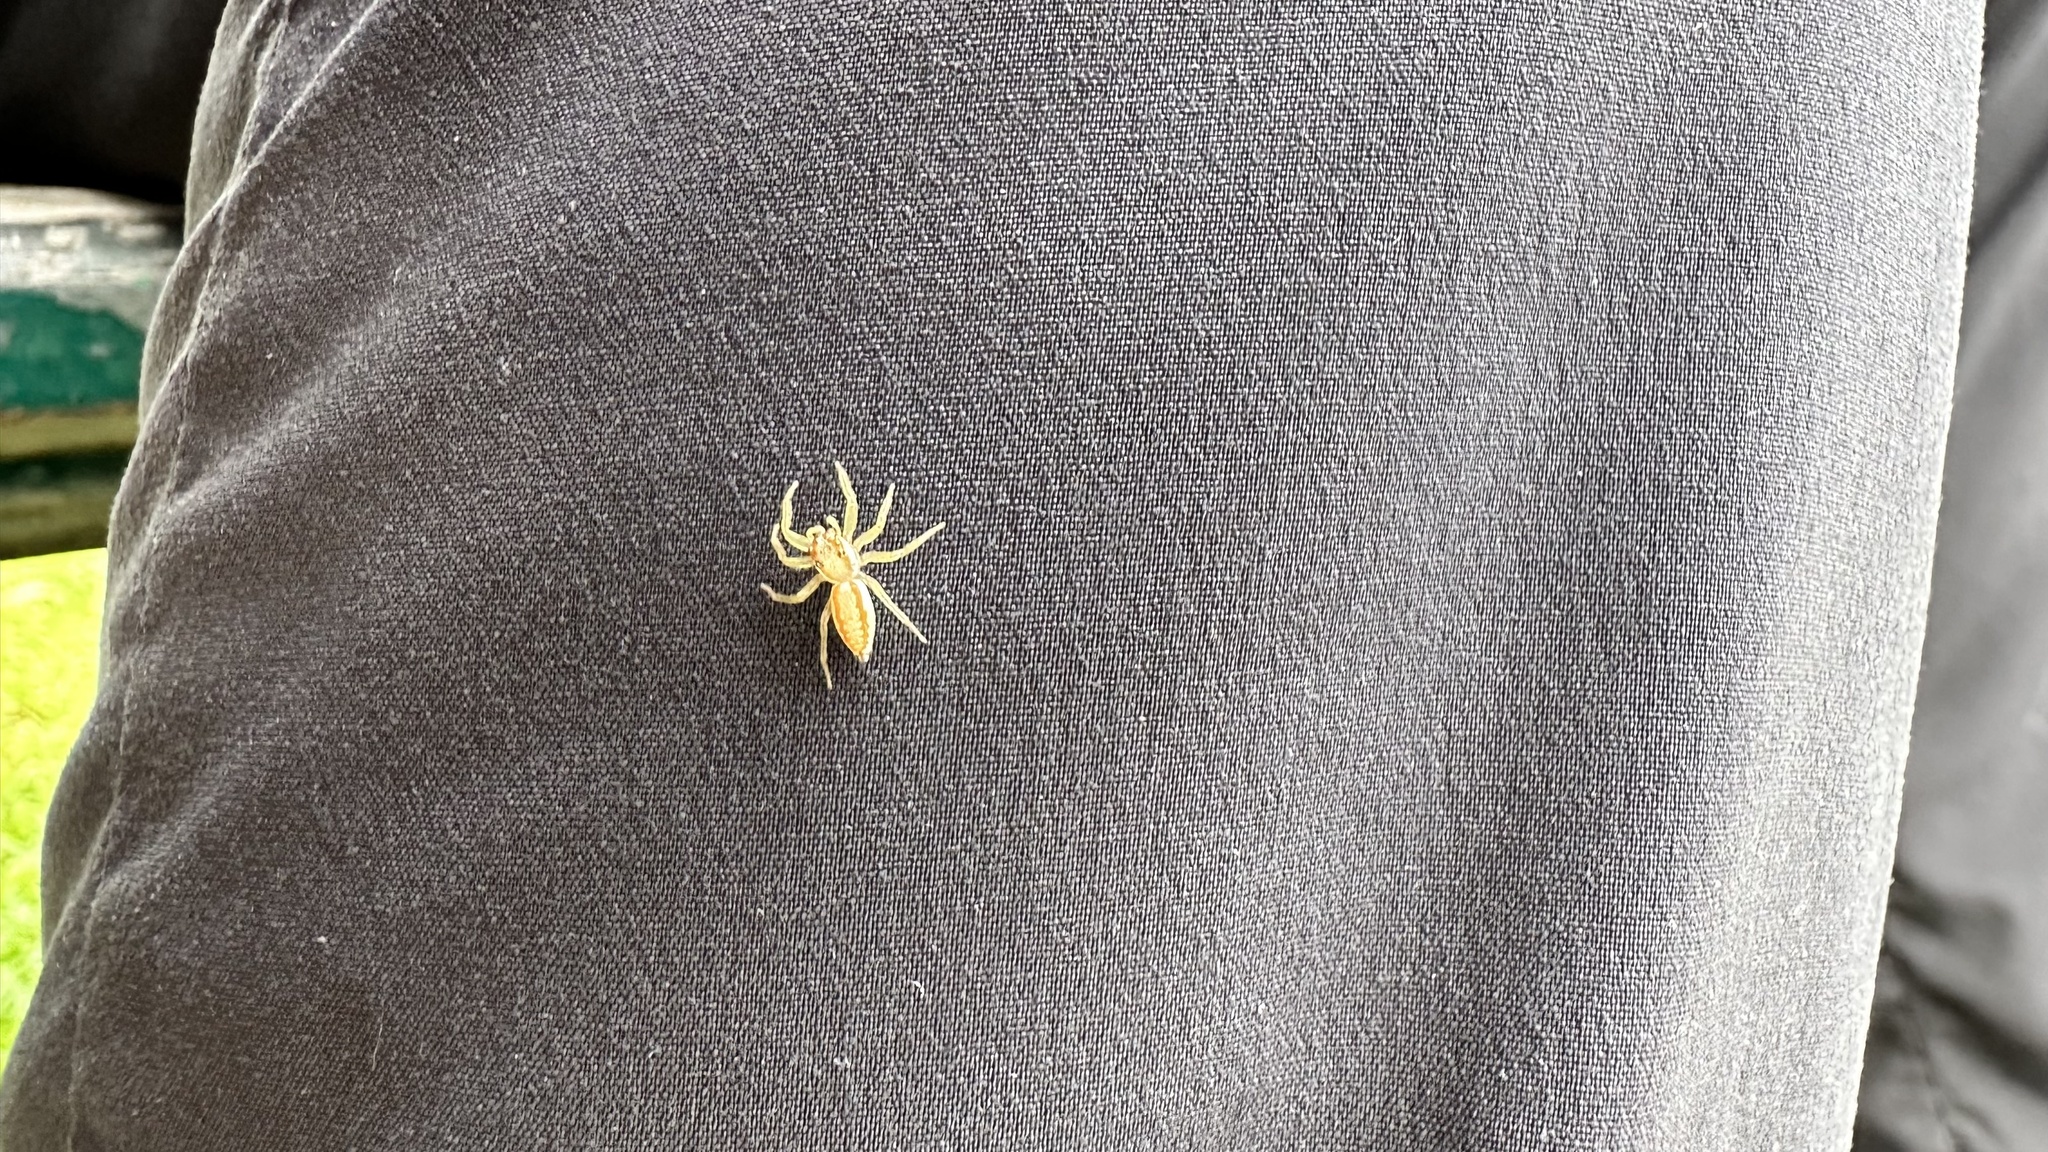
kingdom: Animalia
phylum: Arthropoda
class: Arachnida
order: Araneae
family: Salticidae
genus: Epocilla
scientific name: Epocilla calcarata
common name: Jumping spider
